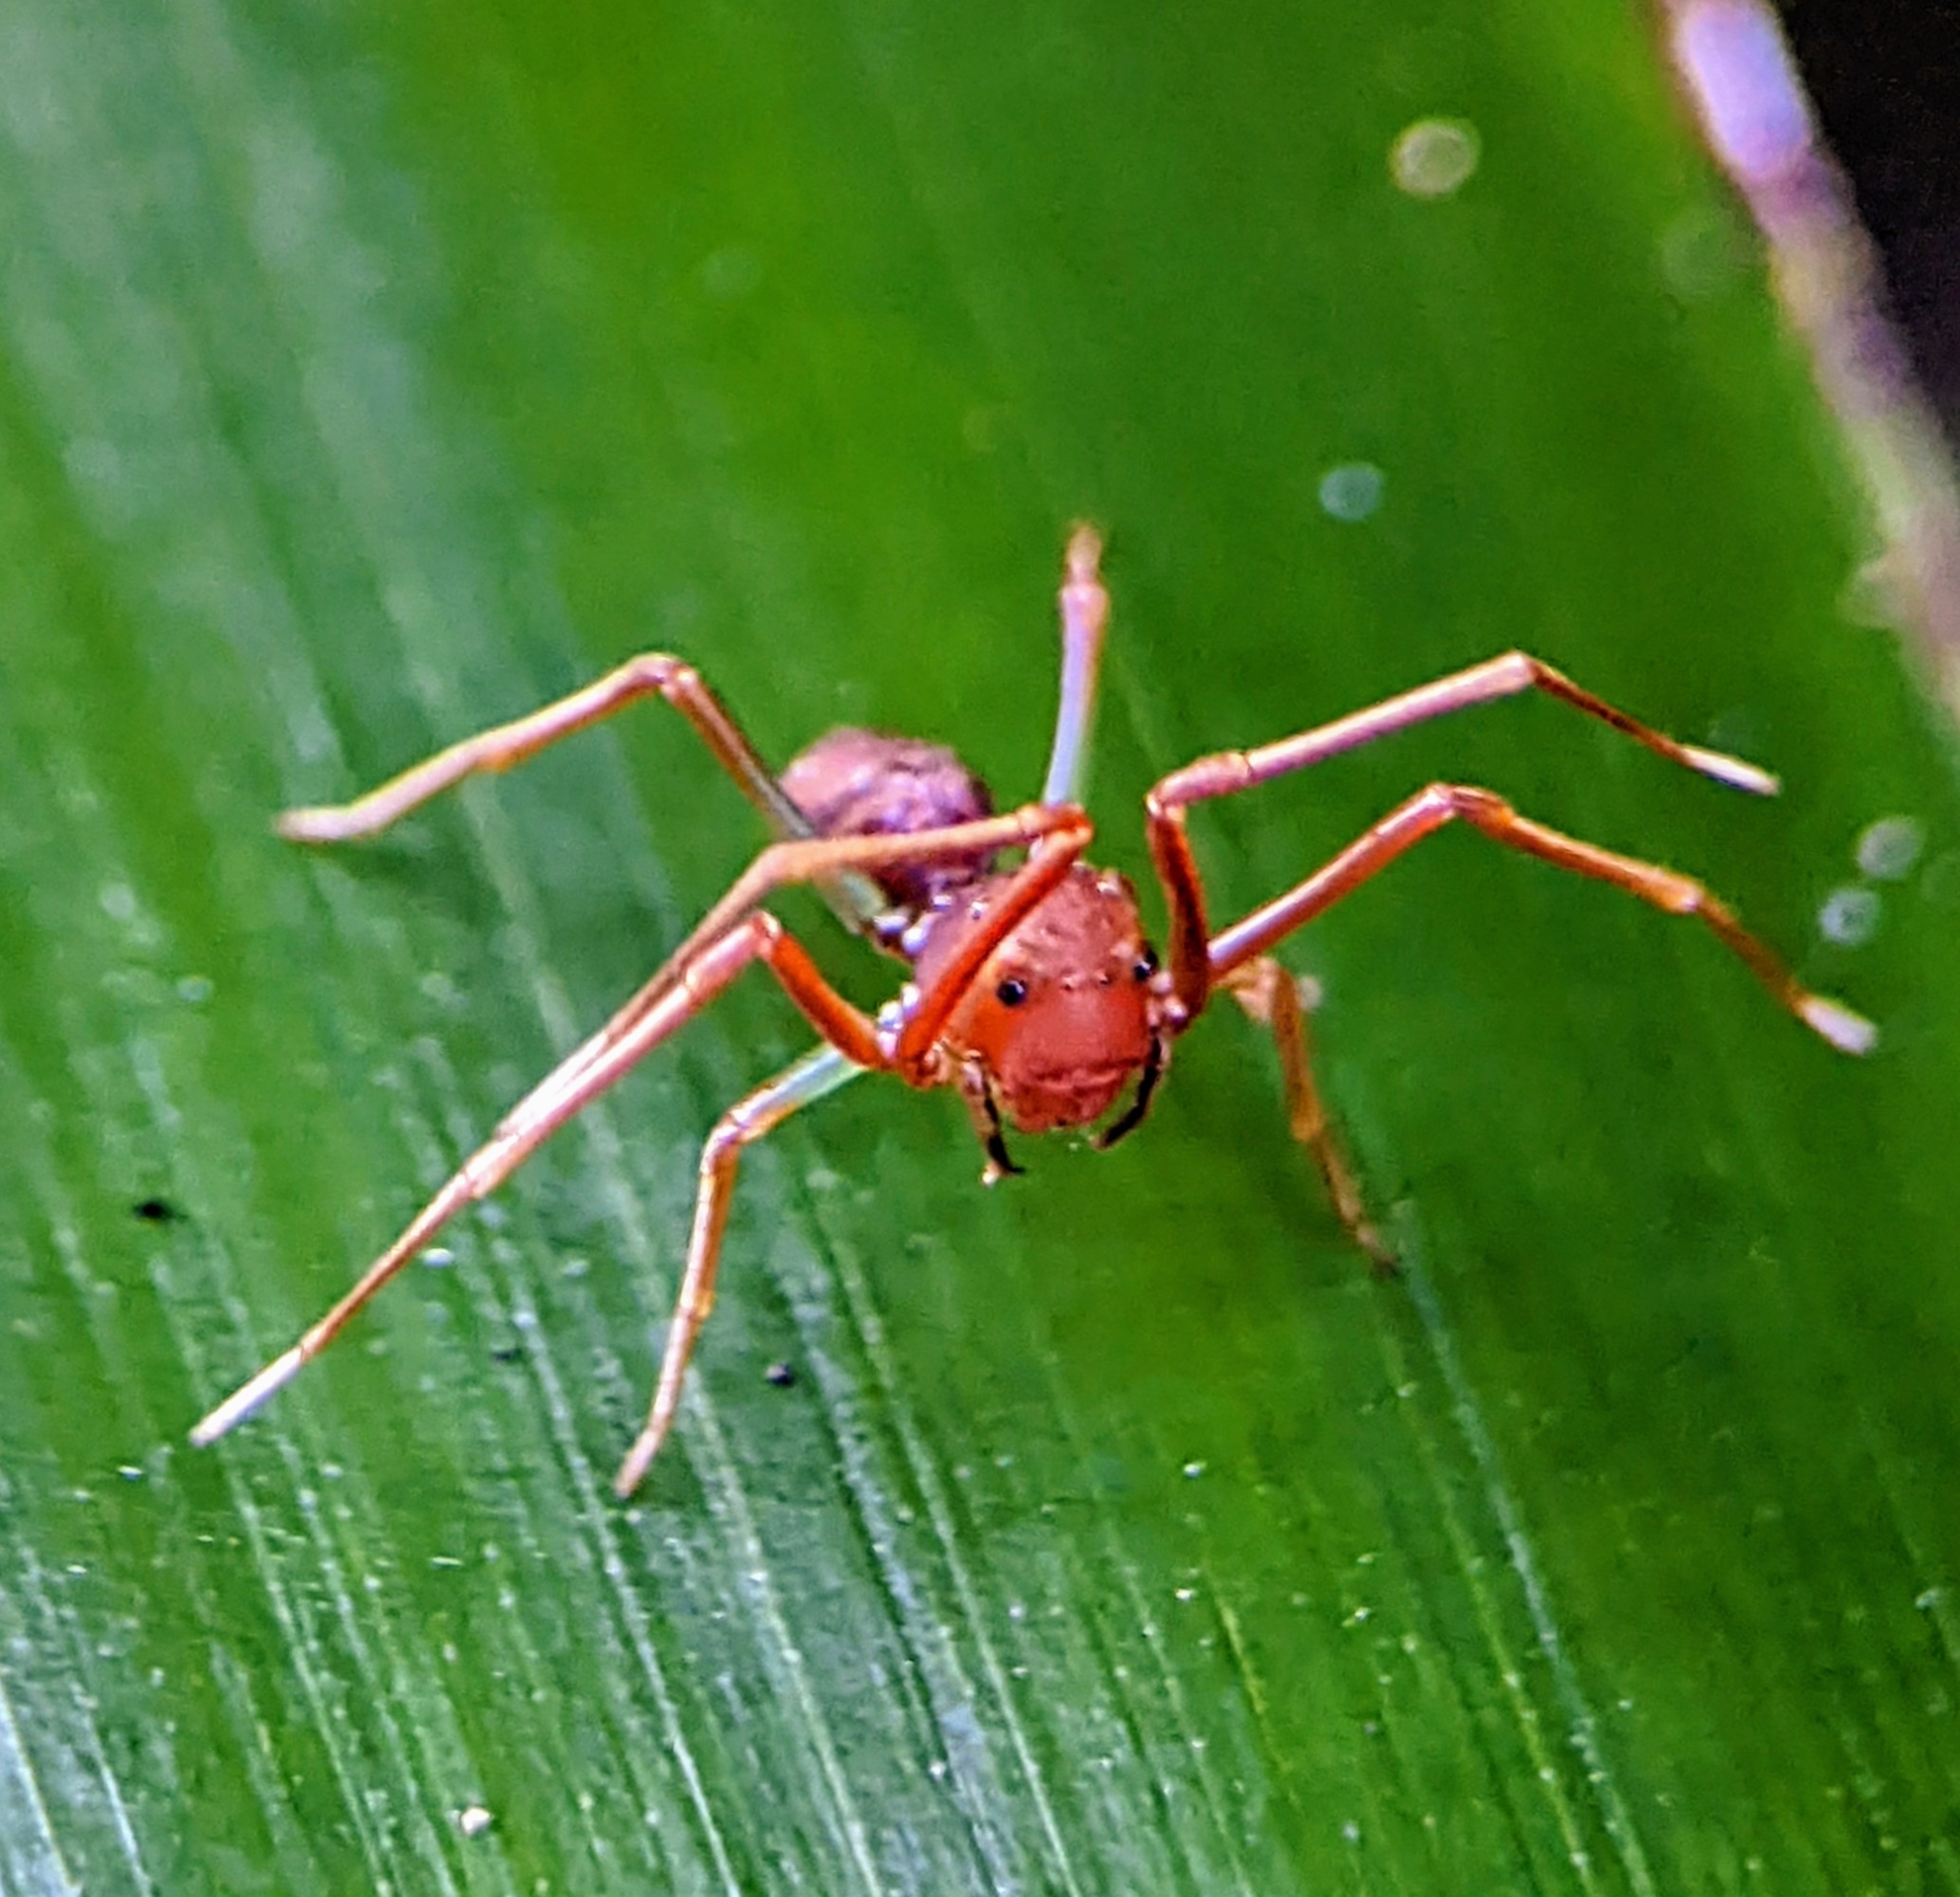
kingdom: Animalia
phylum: Arthropoda
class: Arachnida
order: Araneae
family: Thomisidae
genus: Amyciaea
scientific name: Amyciaea forticeps
